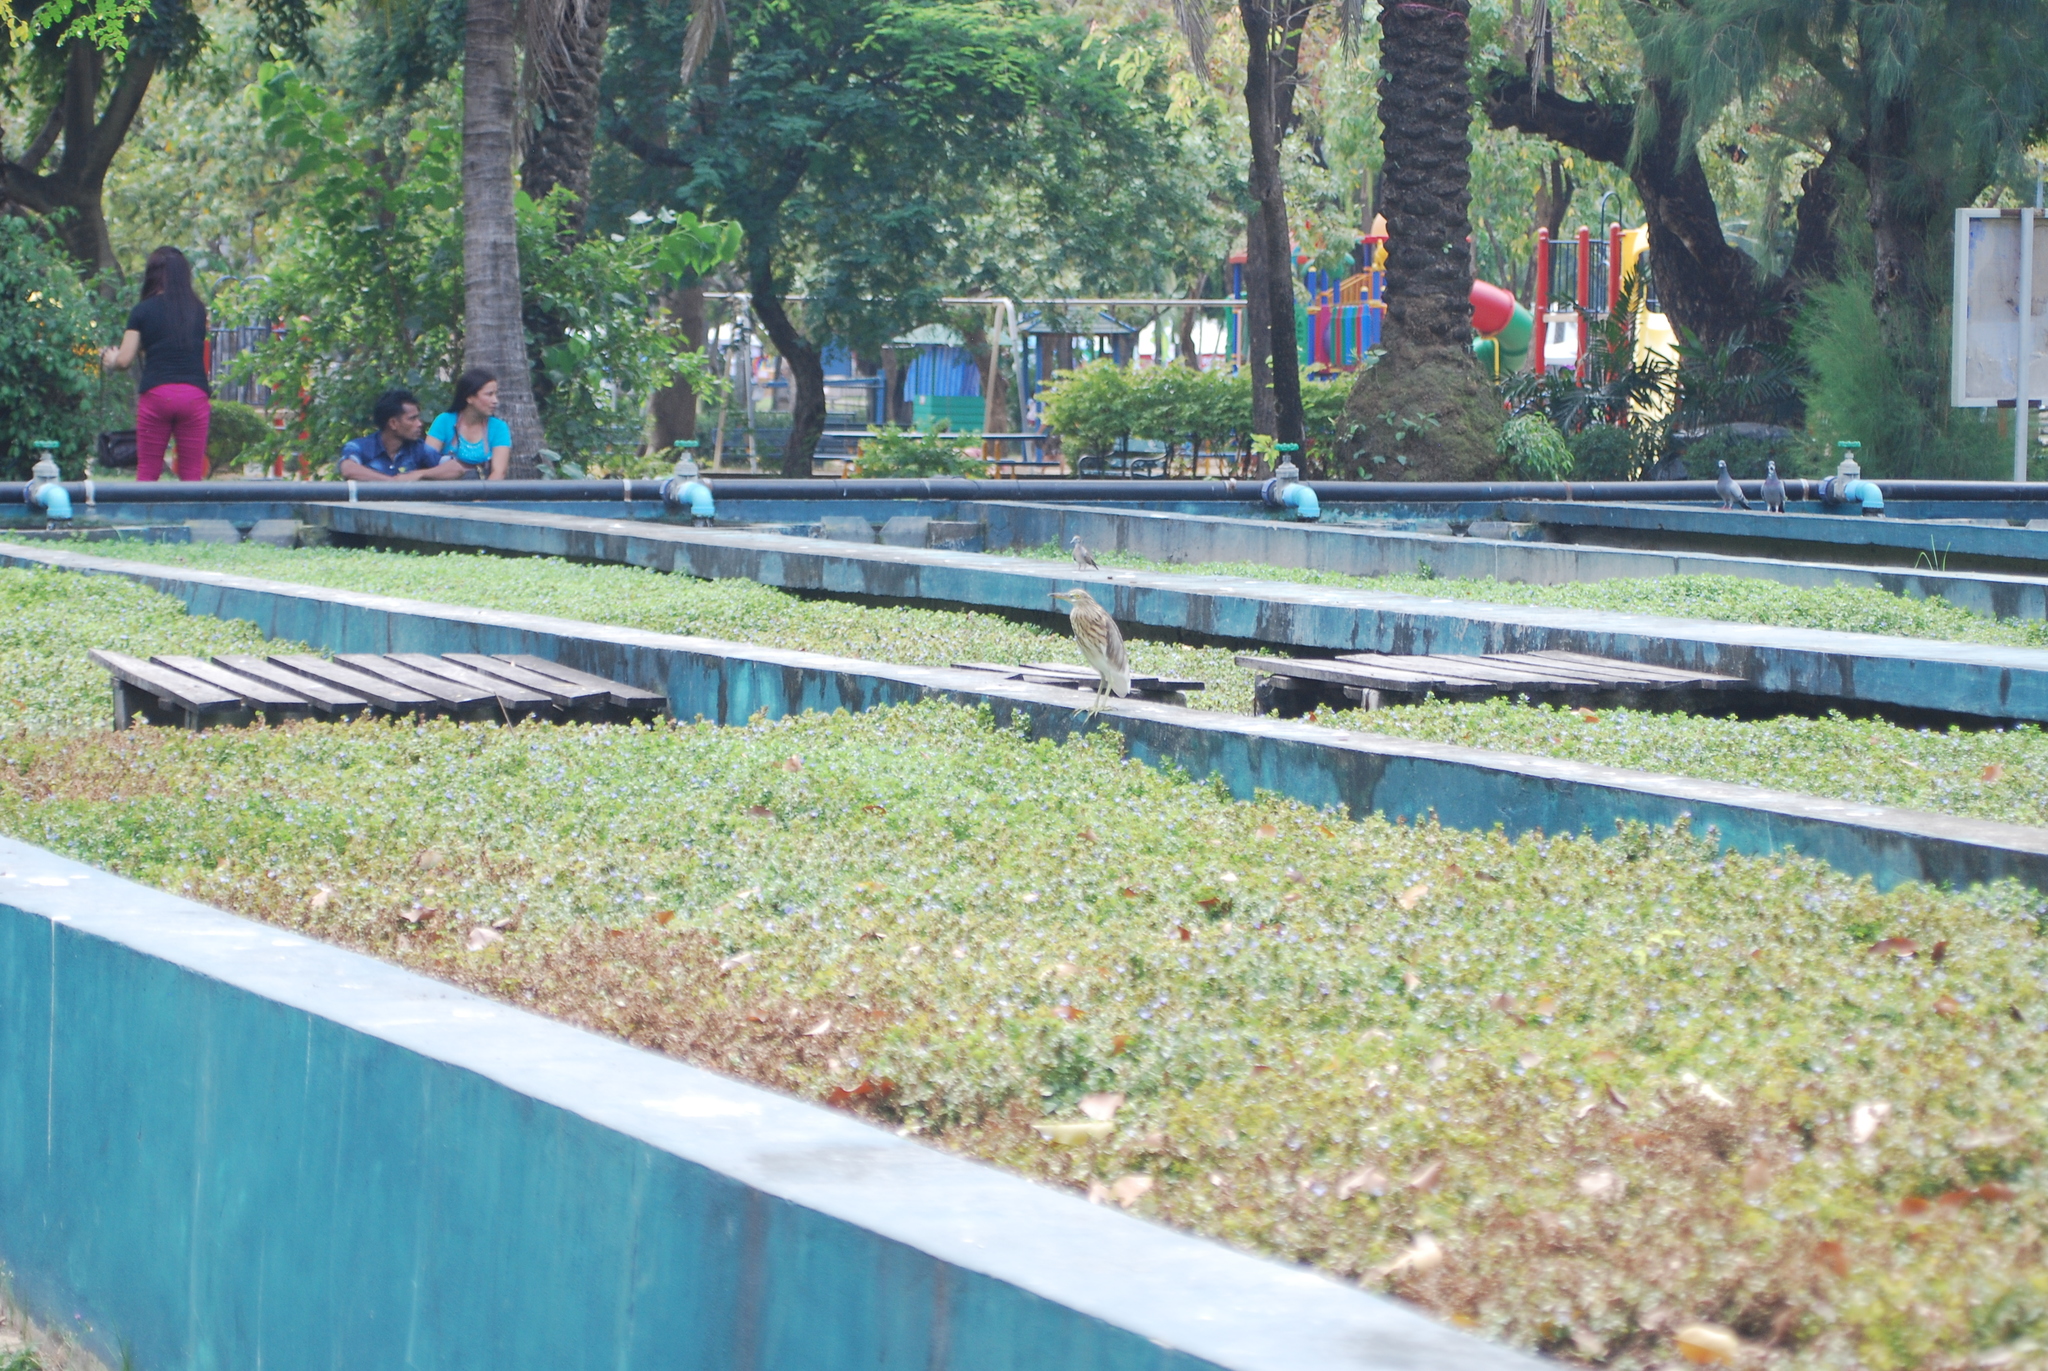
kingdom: Animalia
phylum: Chordata
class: Aves
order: Pelecaniformes
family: Ardeidae
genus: Ardeola
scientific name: Ardeola
